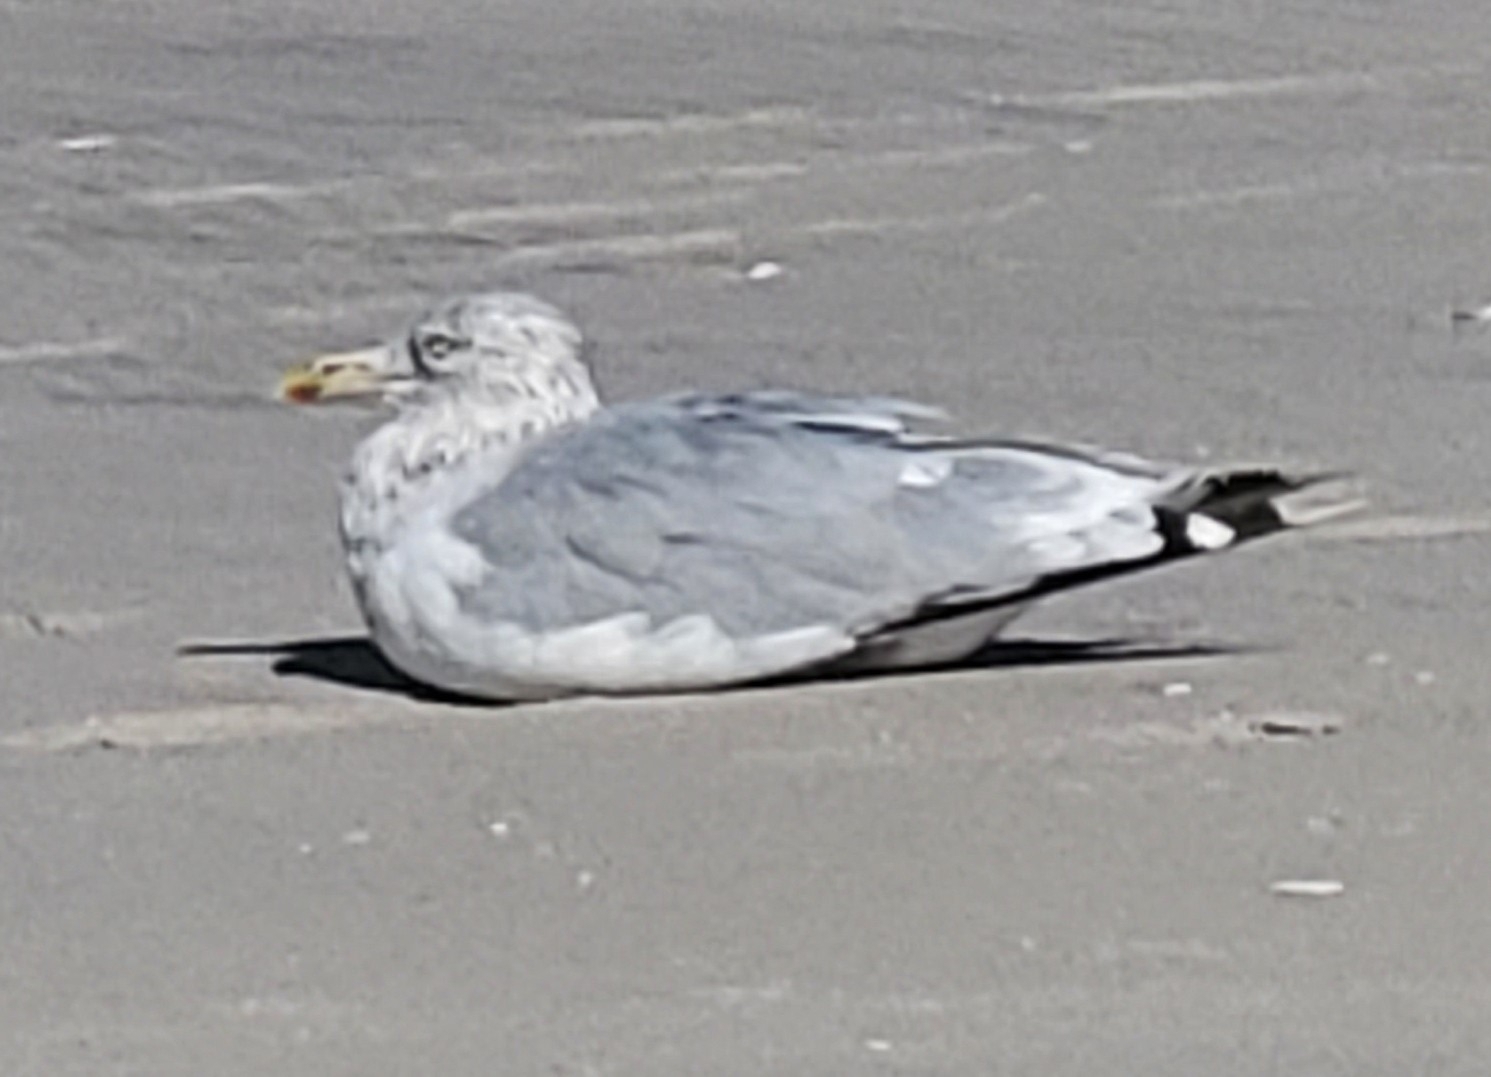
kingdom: Animalia
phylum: Chordata
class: Aves
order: Charadriiformes
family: Laridae
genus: Larus
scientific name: Larus argentatus
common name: Herring gull
